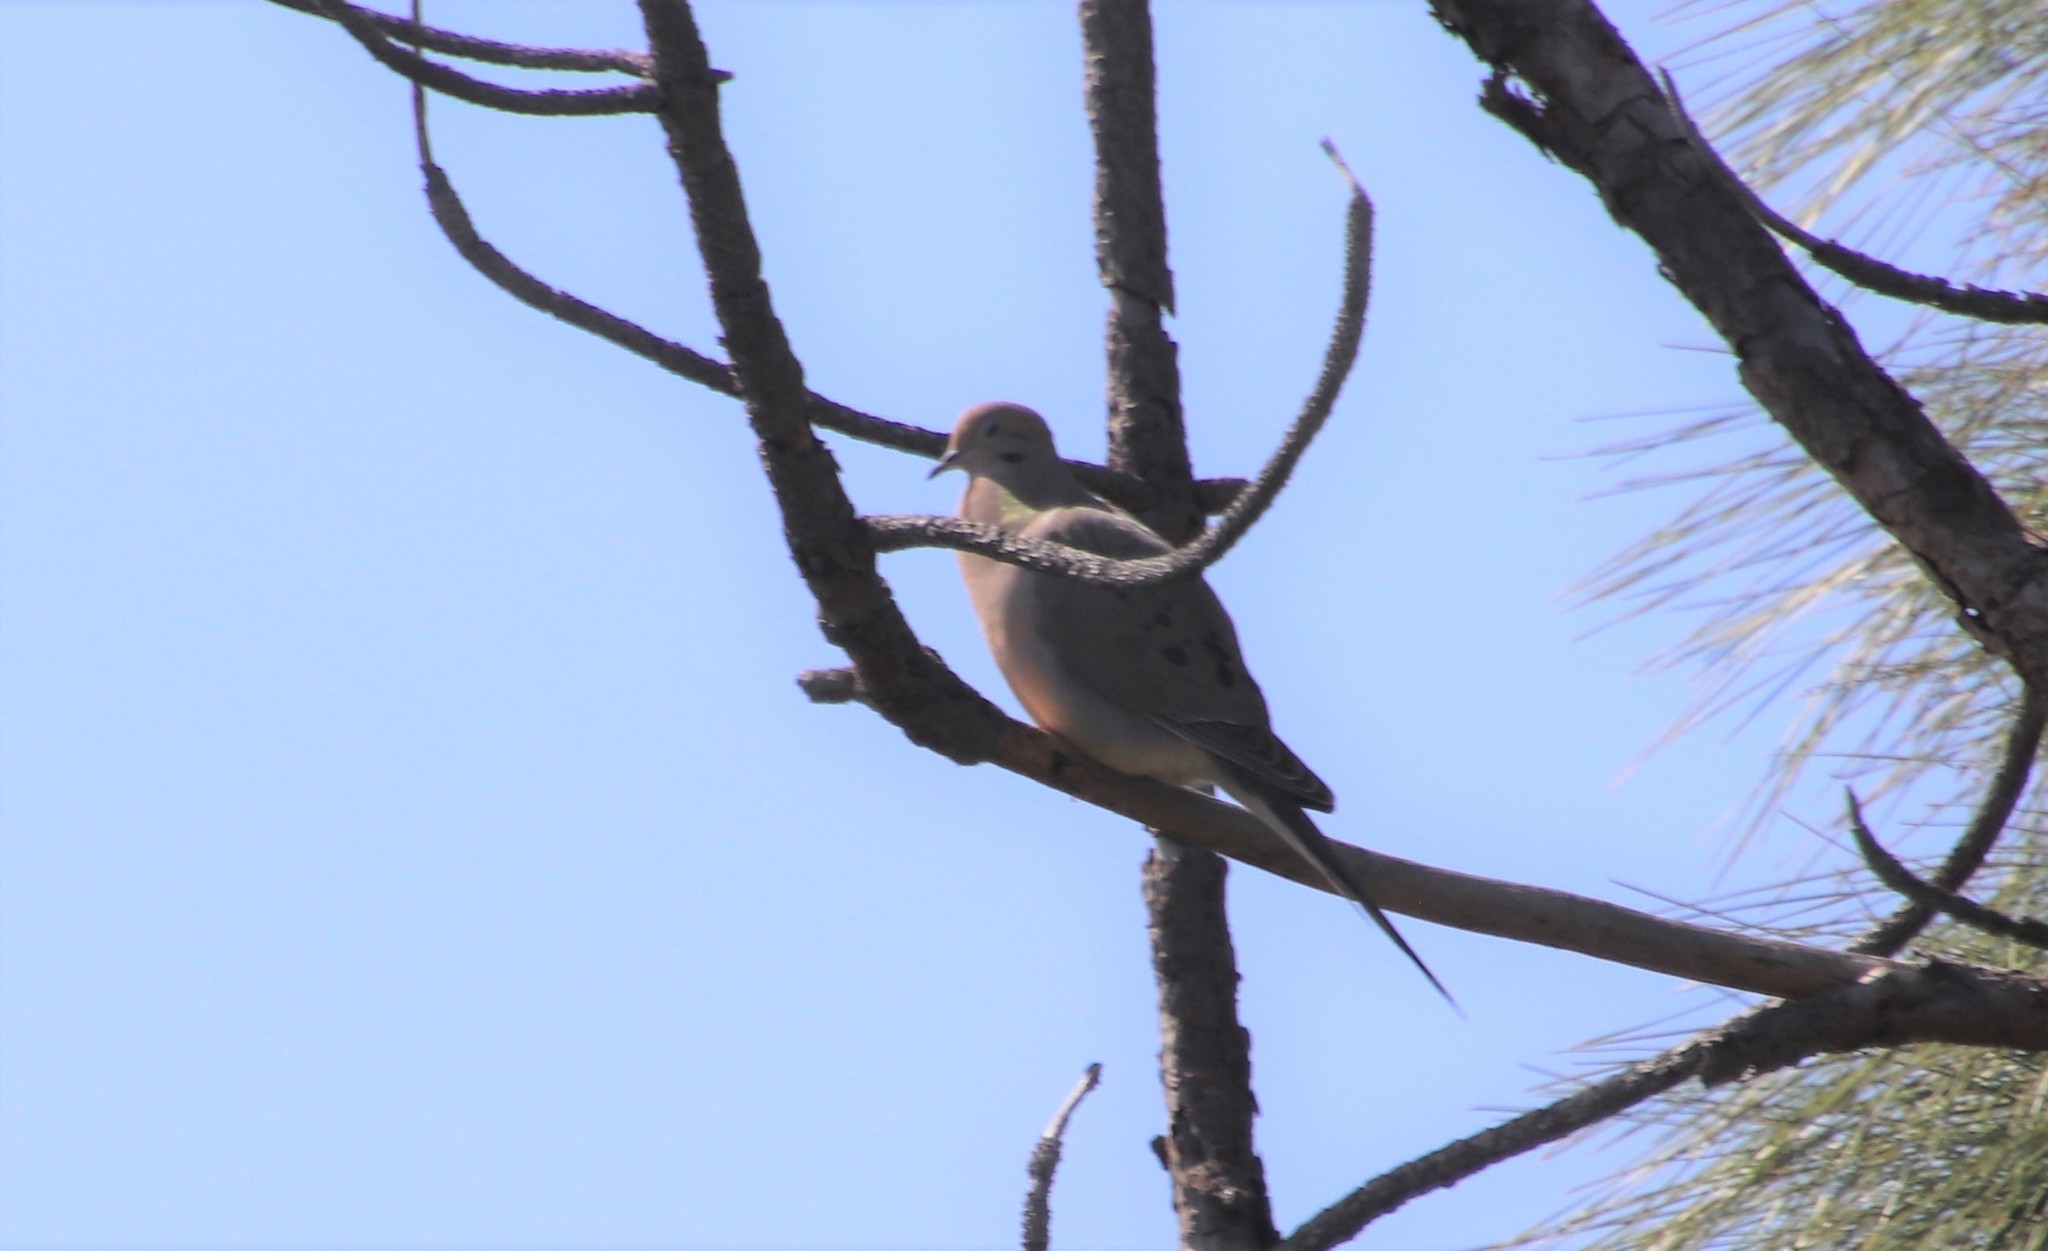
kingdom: Animalia
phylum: Chordata
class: Aves
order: Columbiformes
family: Columbidae
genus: Zenaida
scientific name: Zenaida macroura
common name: Mourning dove
